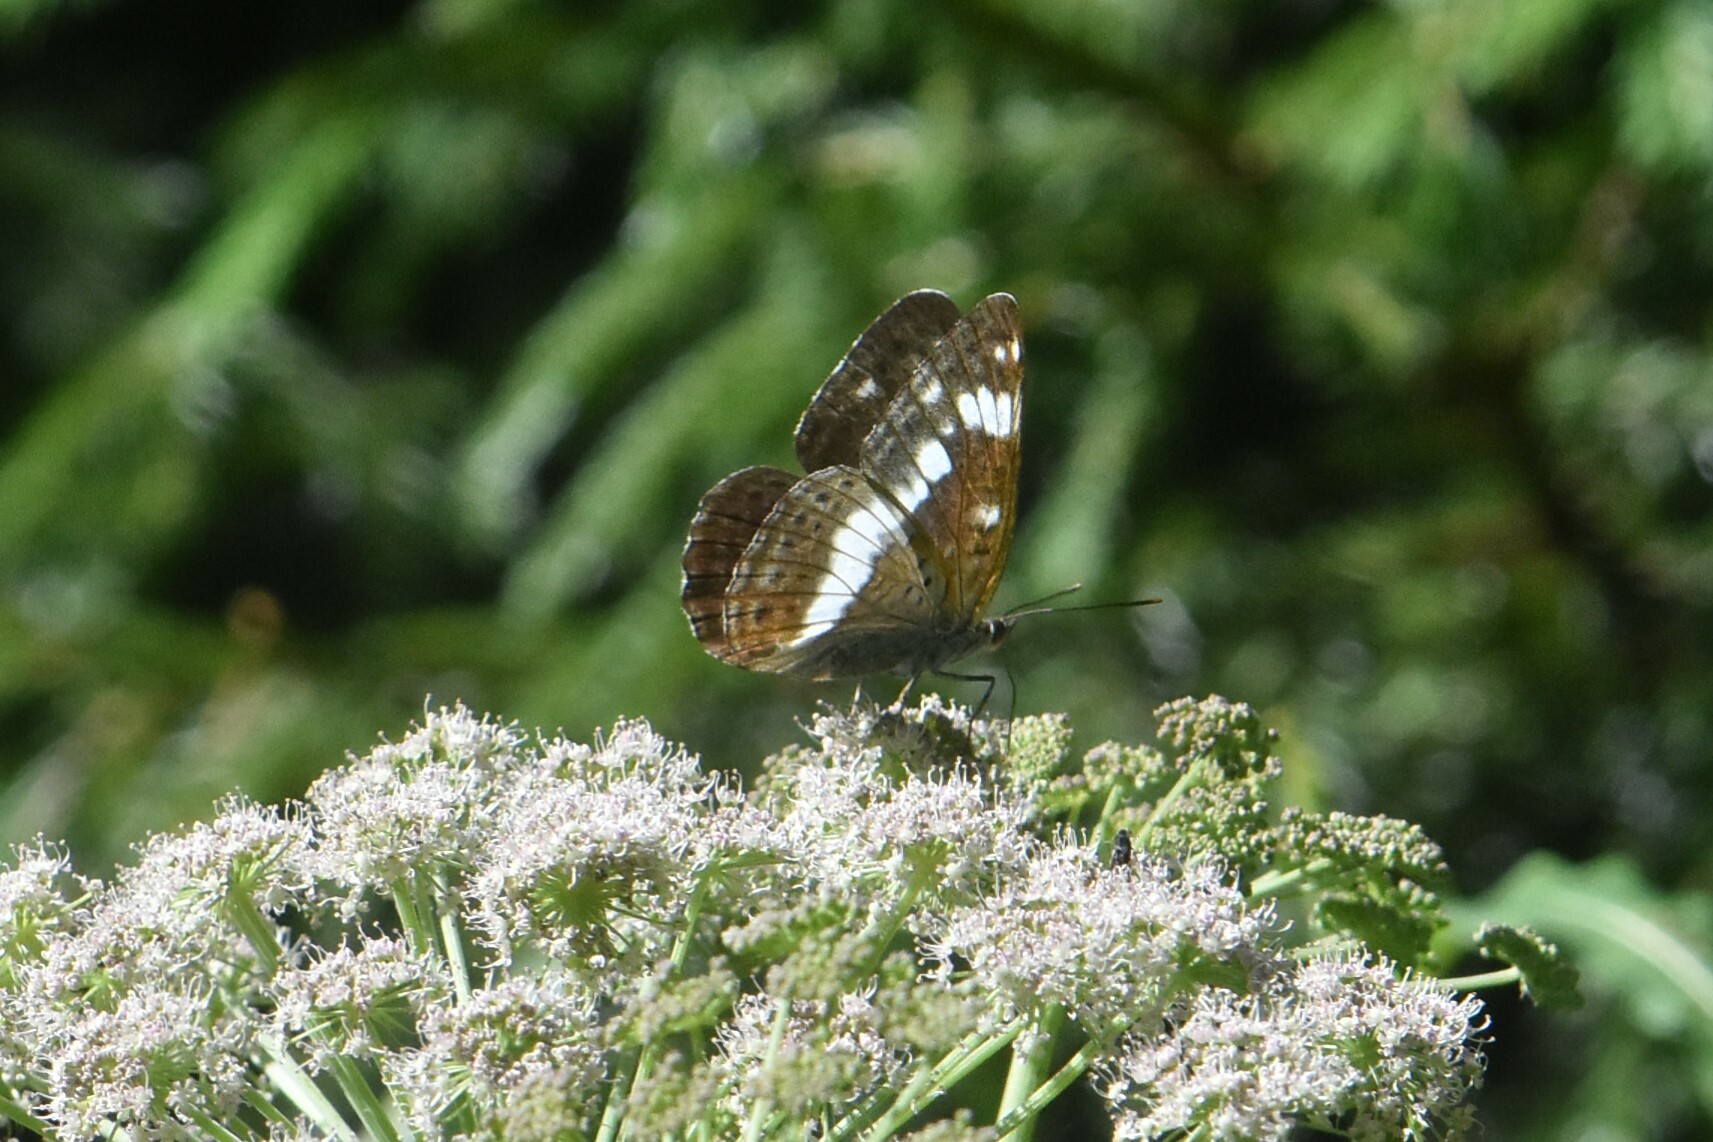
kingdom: Animalia
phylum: Arthropoda
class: Insecta
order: Lepidoptera
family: Nymphalidae
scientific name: Nymphalidae
